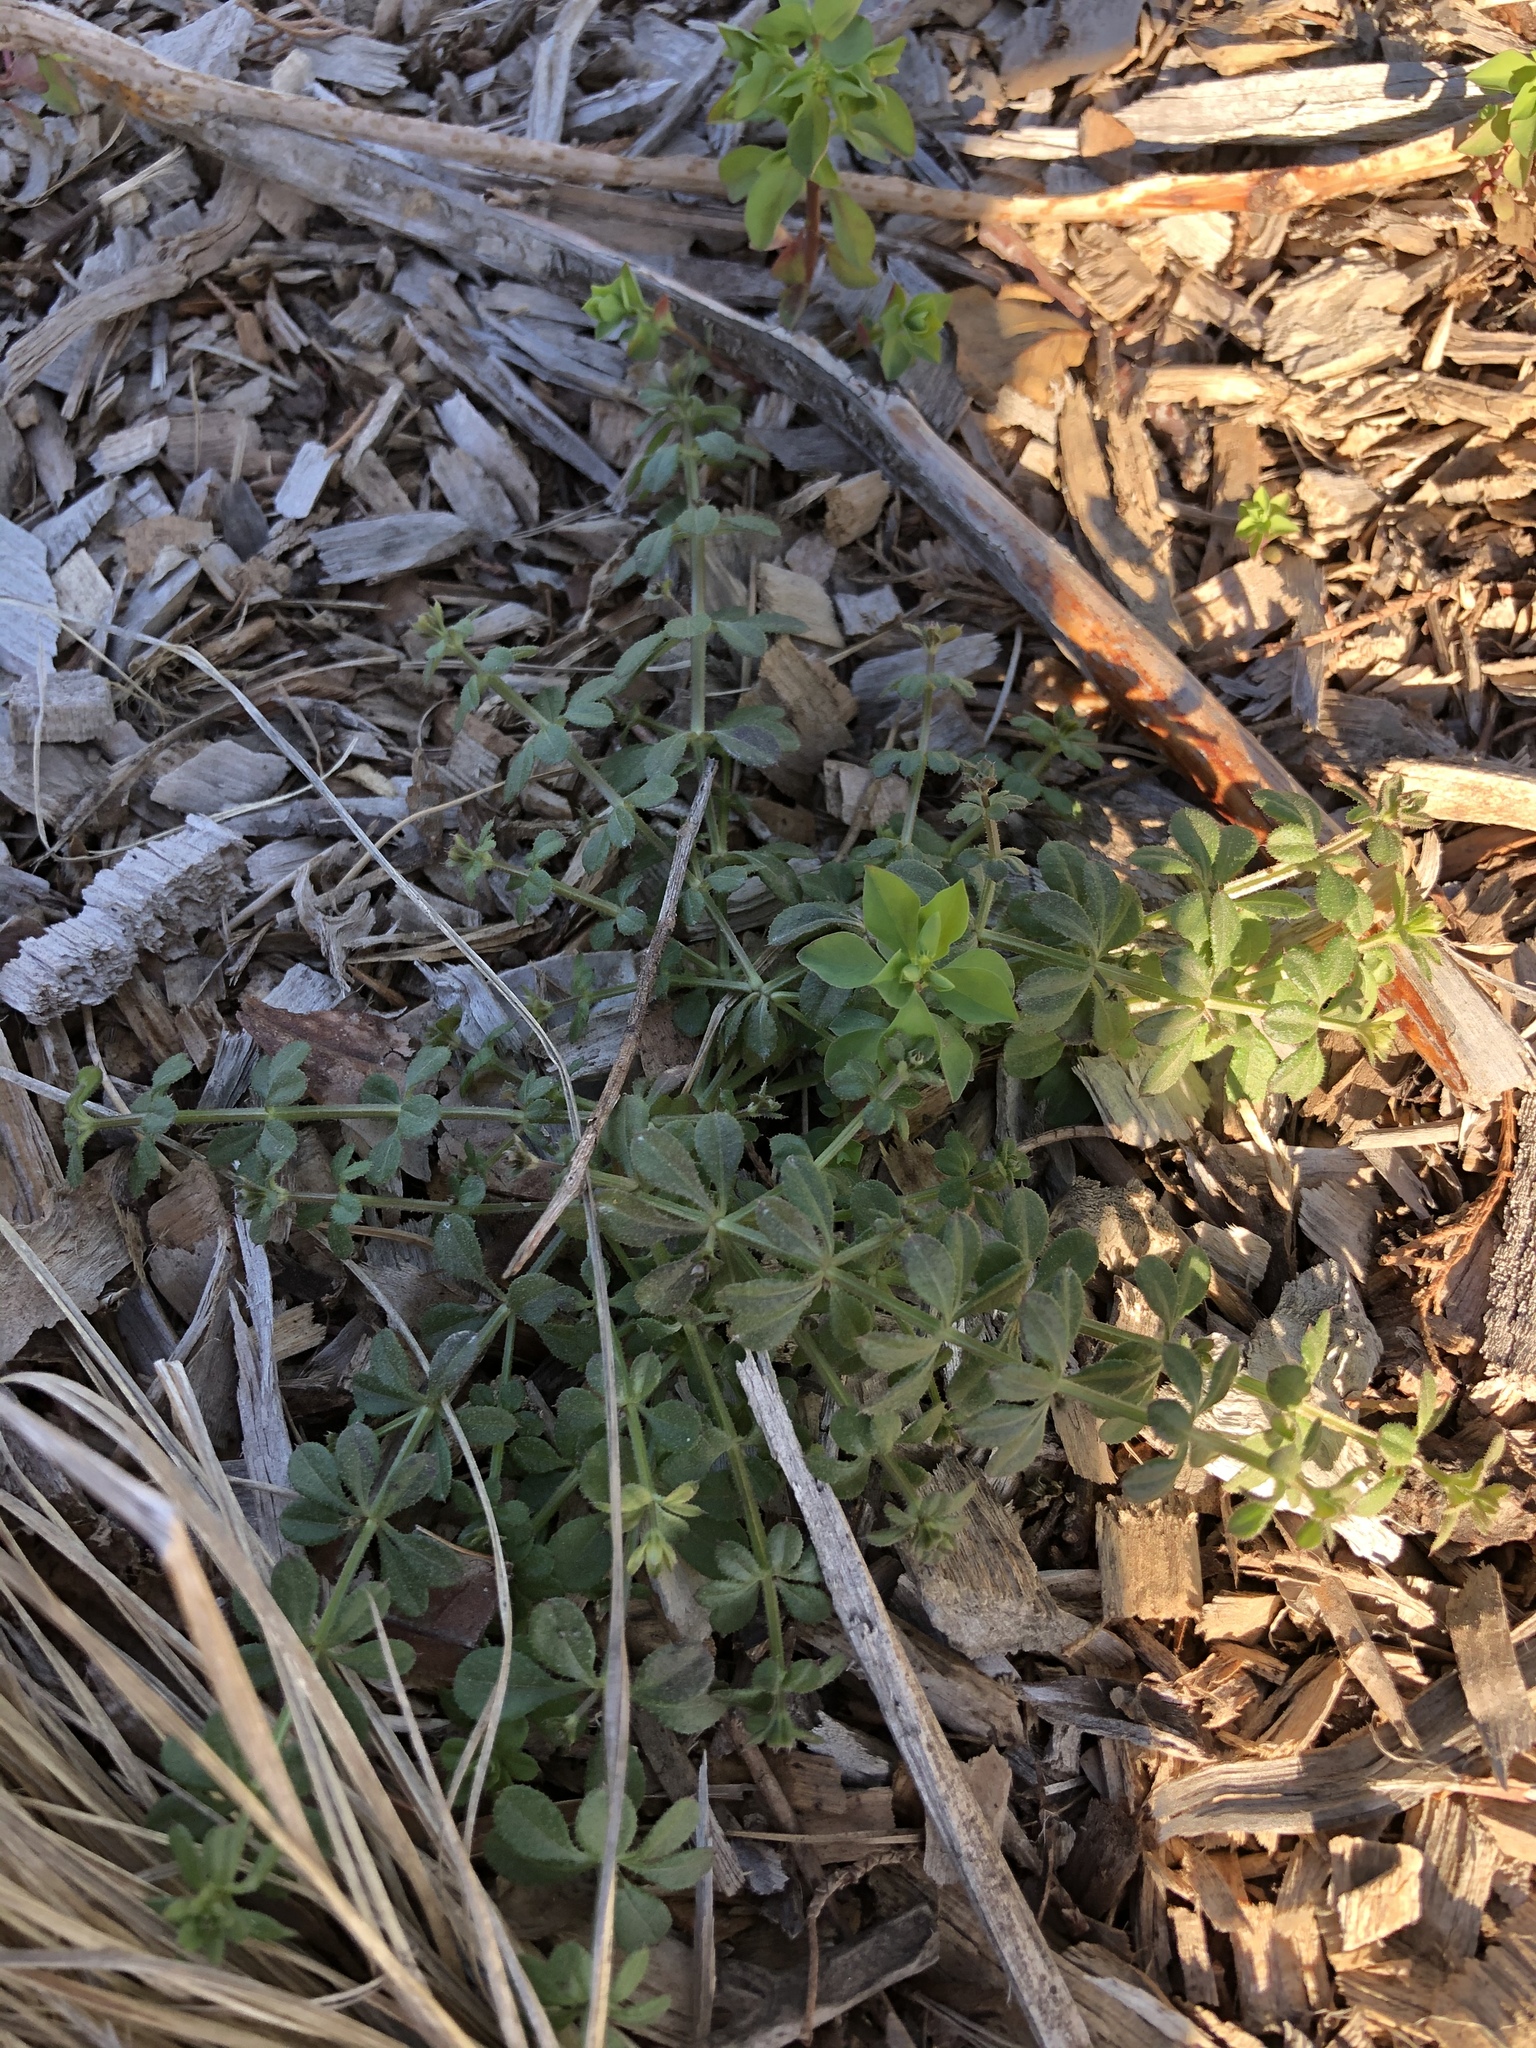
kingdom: Plantae
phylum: Tracheophyta
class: Magnoliopsida
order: Gentianales
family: Rubiaceae
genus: Galium
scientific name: Galium aparine
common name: Cleavers
